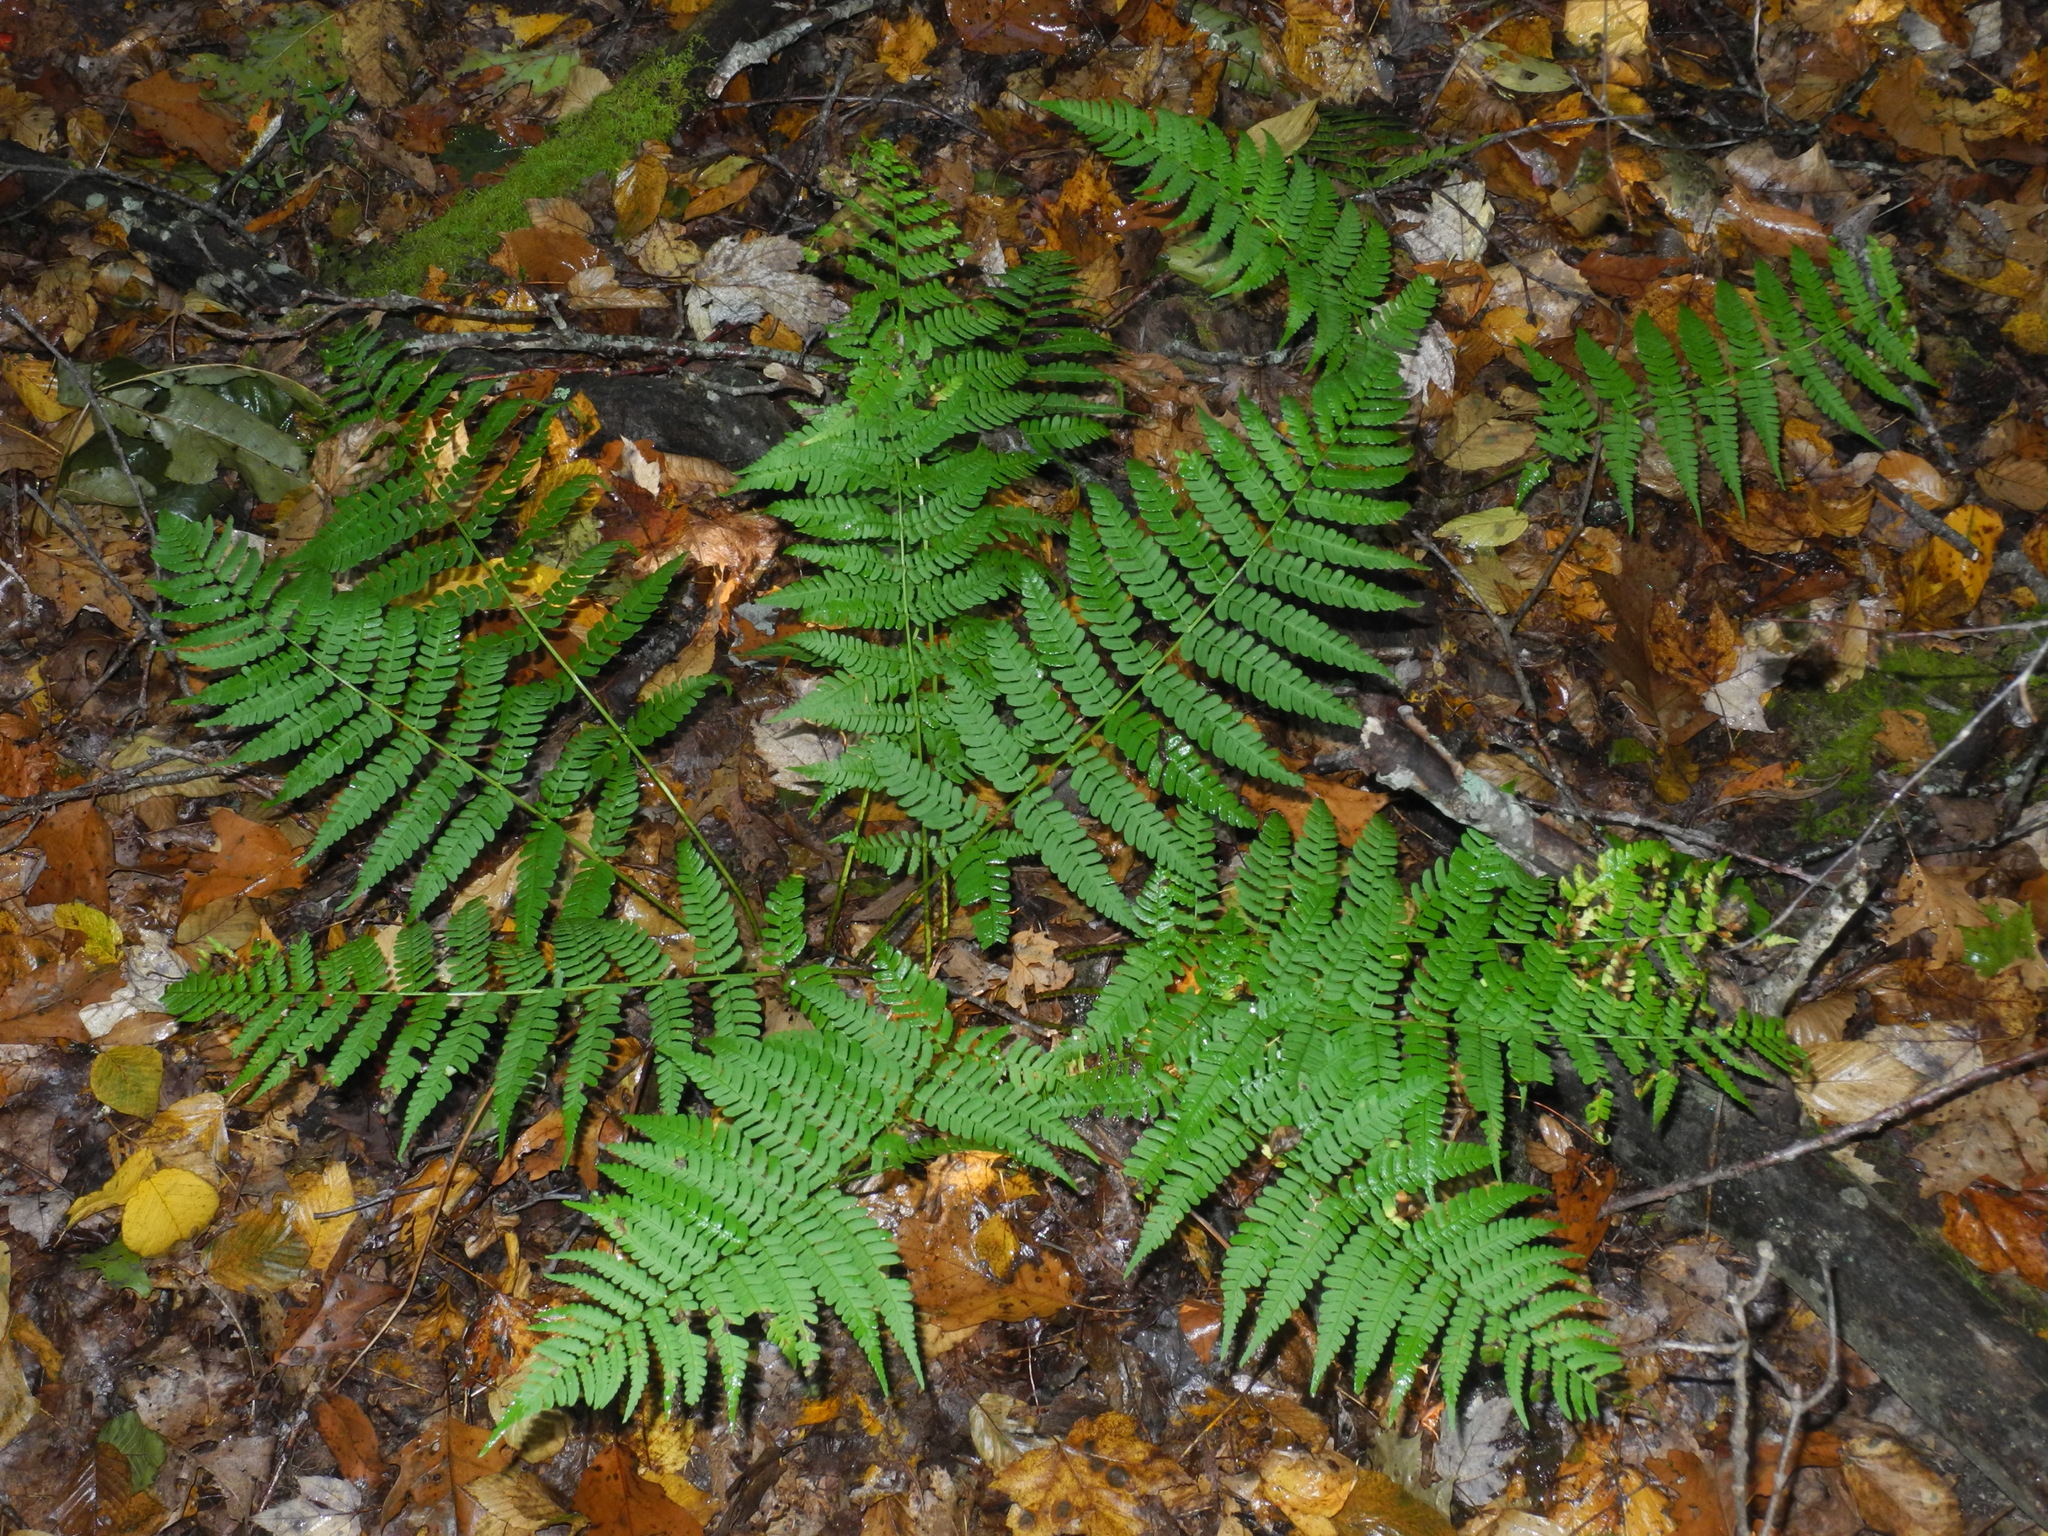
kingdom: Plantae
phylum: Tracheophyta
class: Polypodiopsida
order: Polypodiales
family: Dryopteridaceae
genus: Dryopteris
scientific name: Dryopteris marginalis
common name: Marginal wood fern
